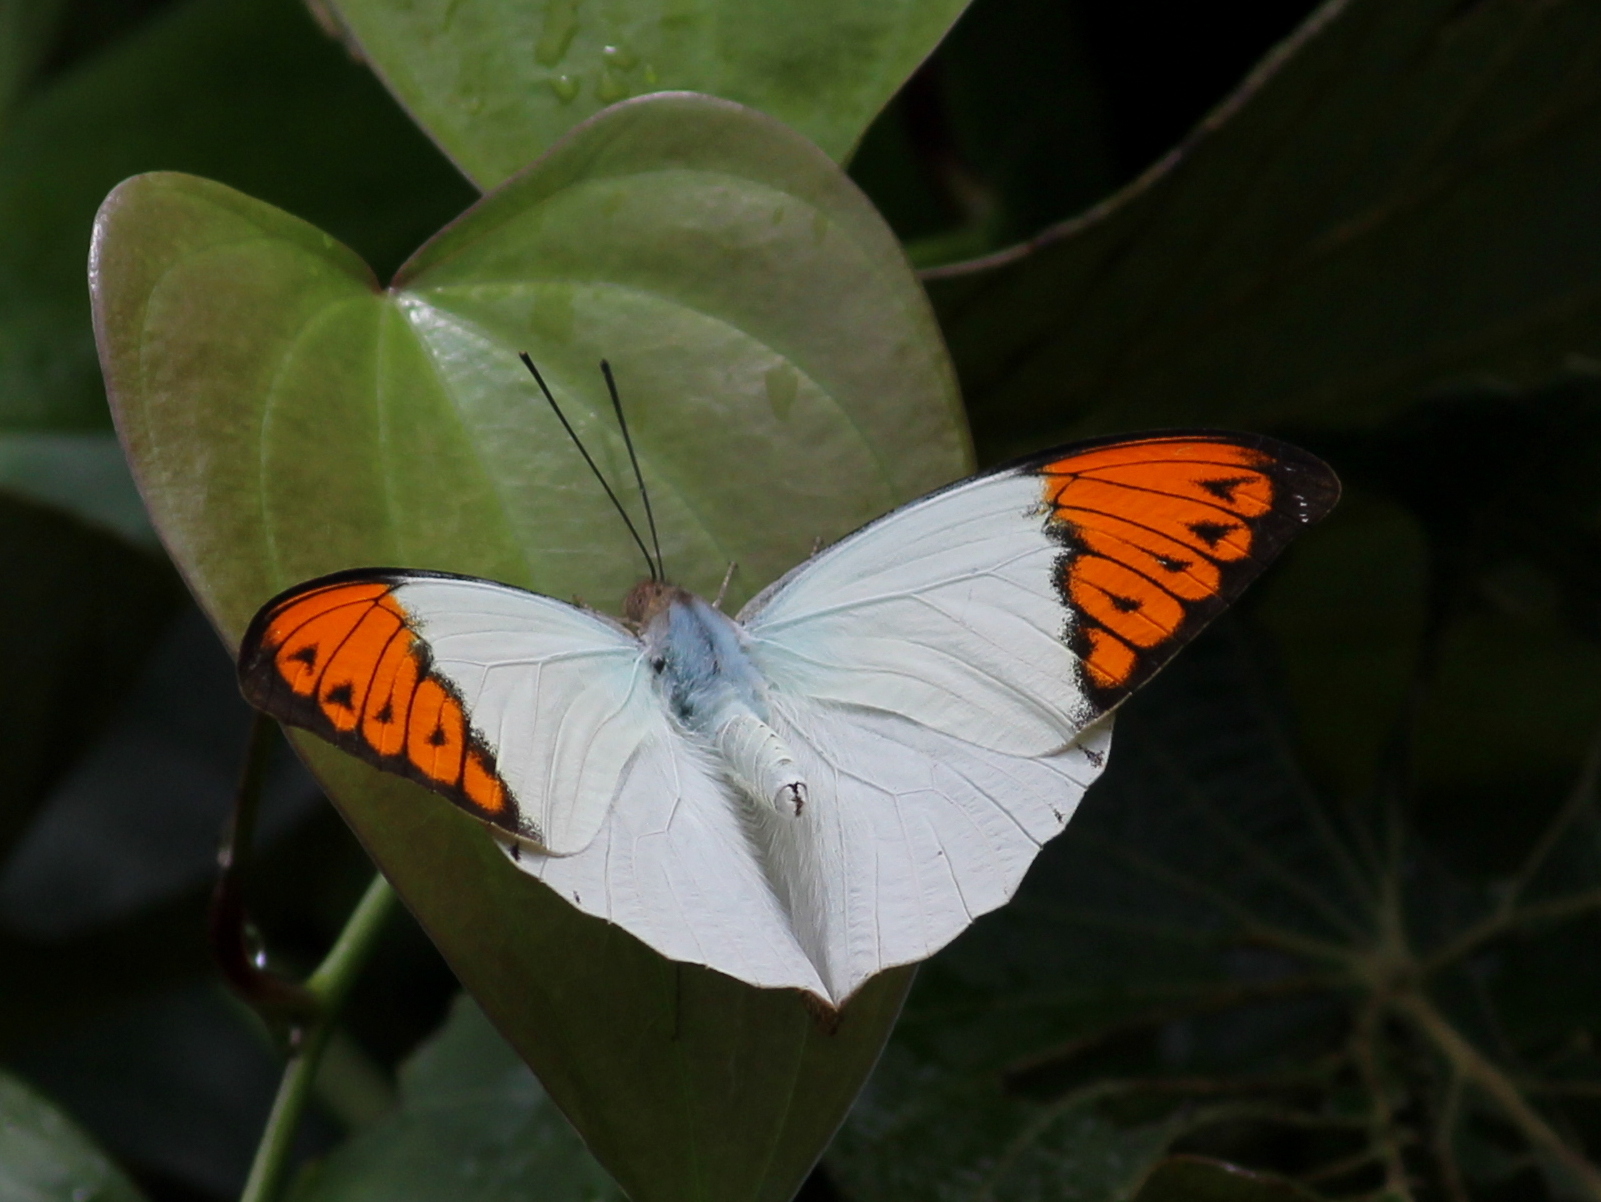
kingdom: Animalia
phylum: Arthropoda
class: Insecta
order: Lepidoptera
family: Pieridae
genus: Hebomoia
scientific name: Hebomoia glaucippe
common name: Great orange tip
